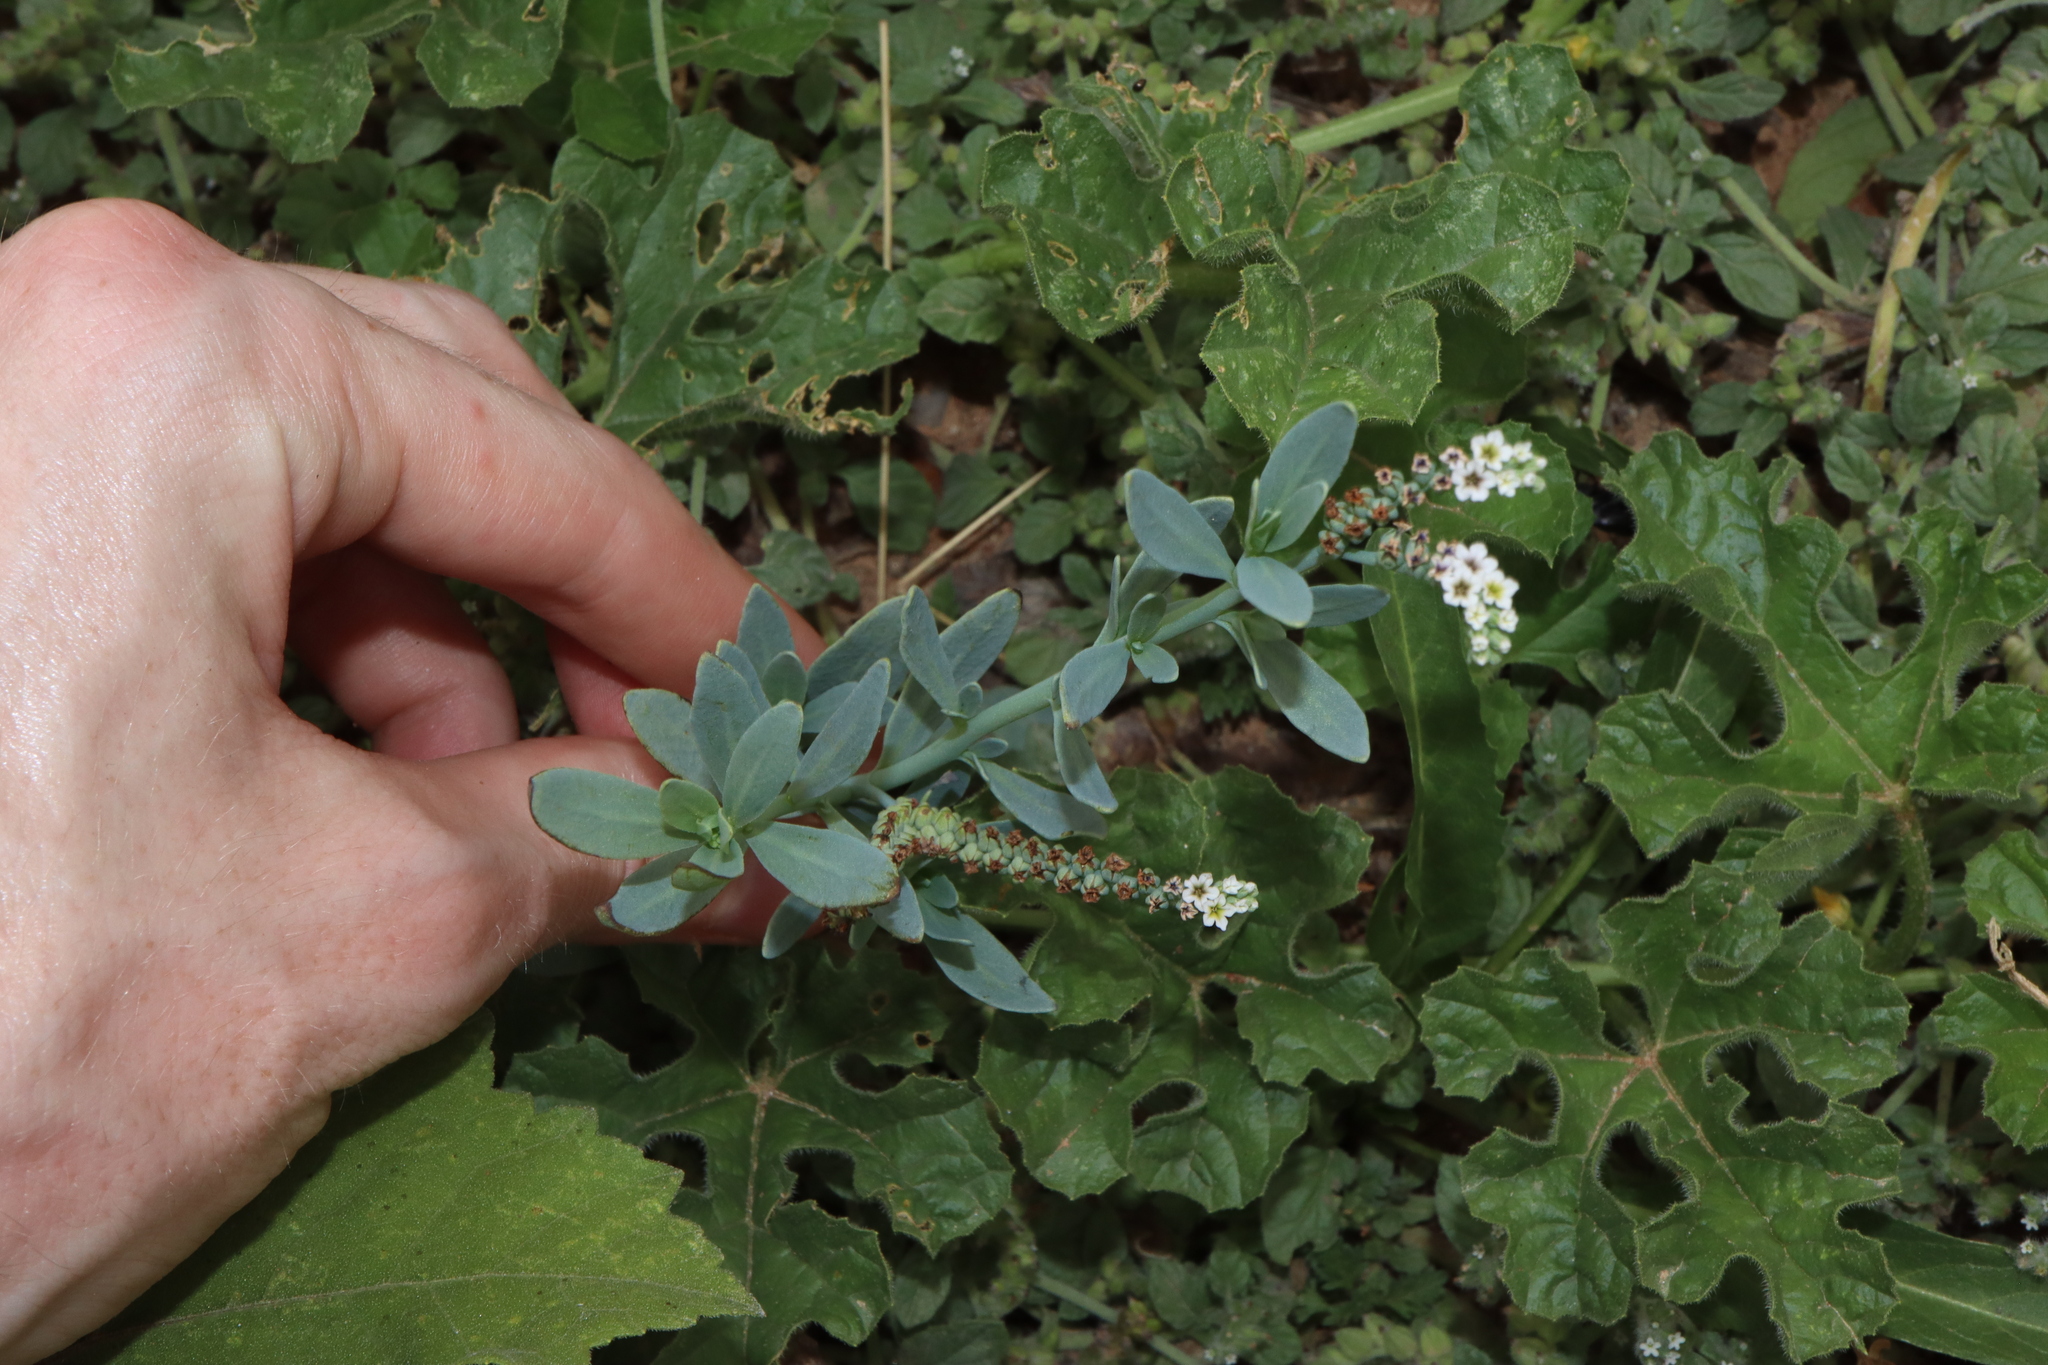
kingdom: Plantae
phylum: Tracheophyta
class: Magnoliopsida
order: Boraginales
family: Heliotropiaceae
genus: Heliotropium
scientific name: Heliotropium curassavicum
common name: Seaside heliotrope
